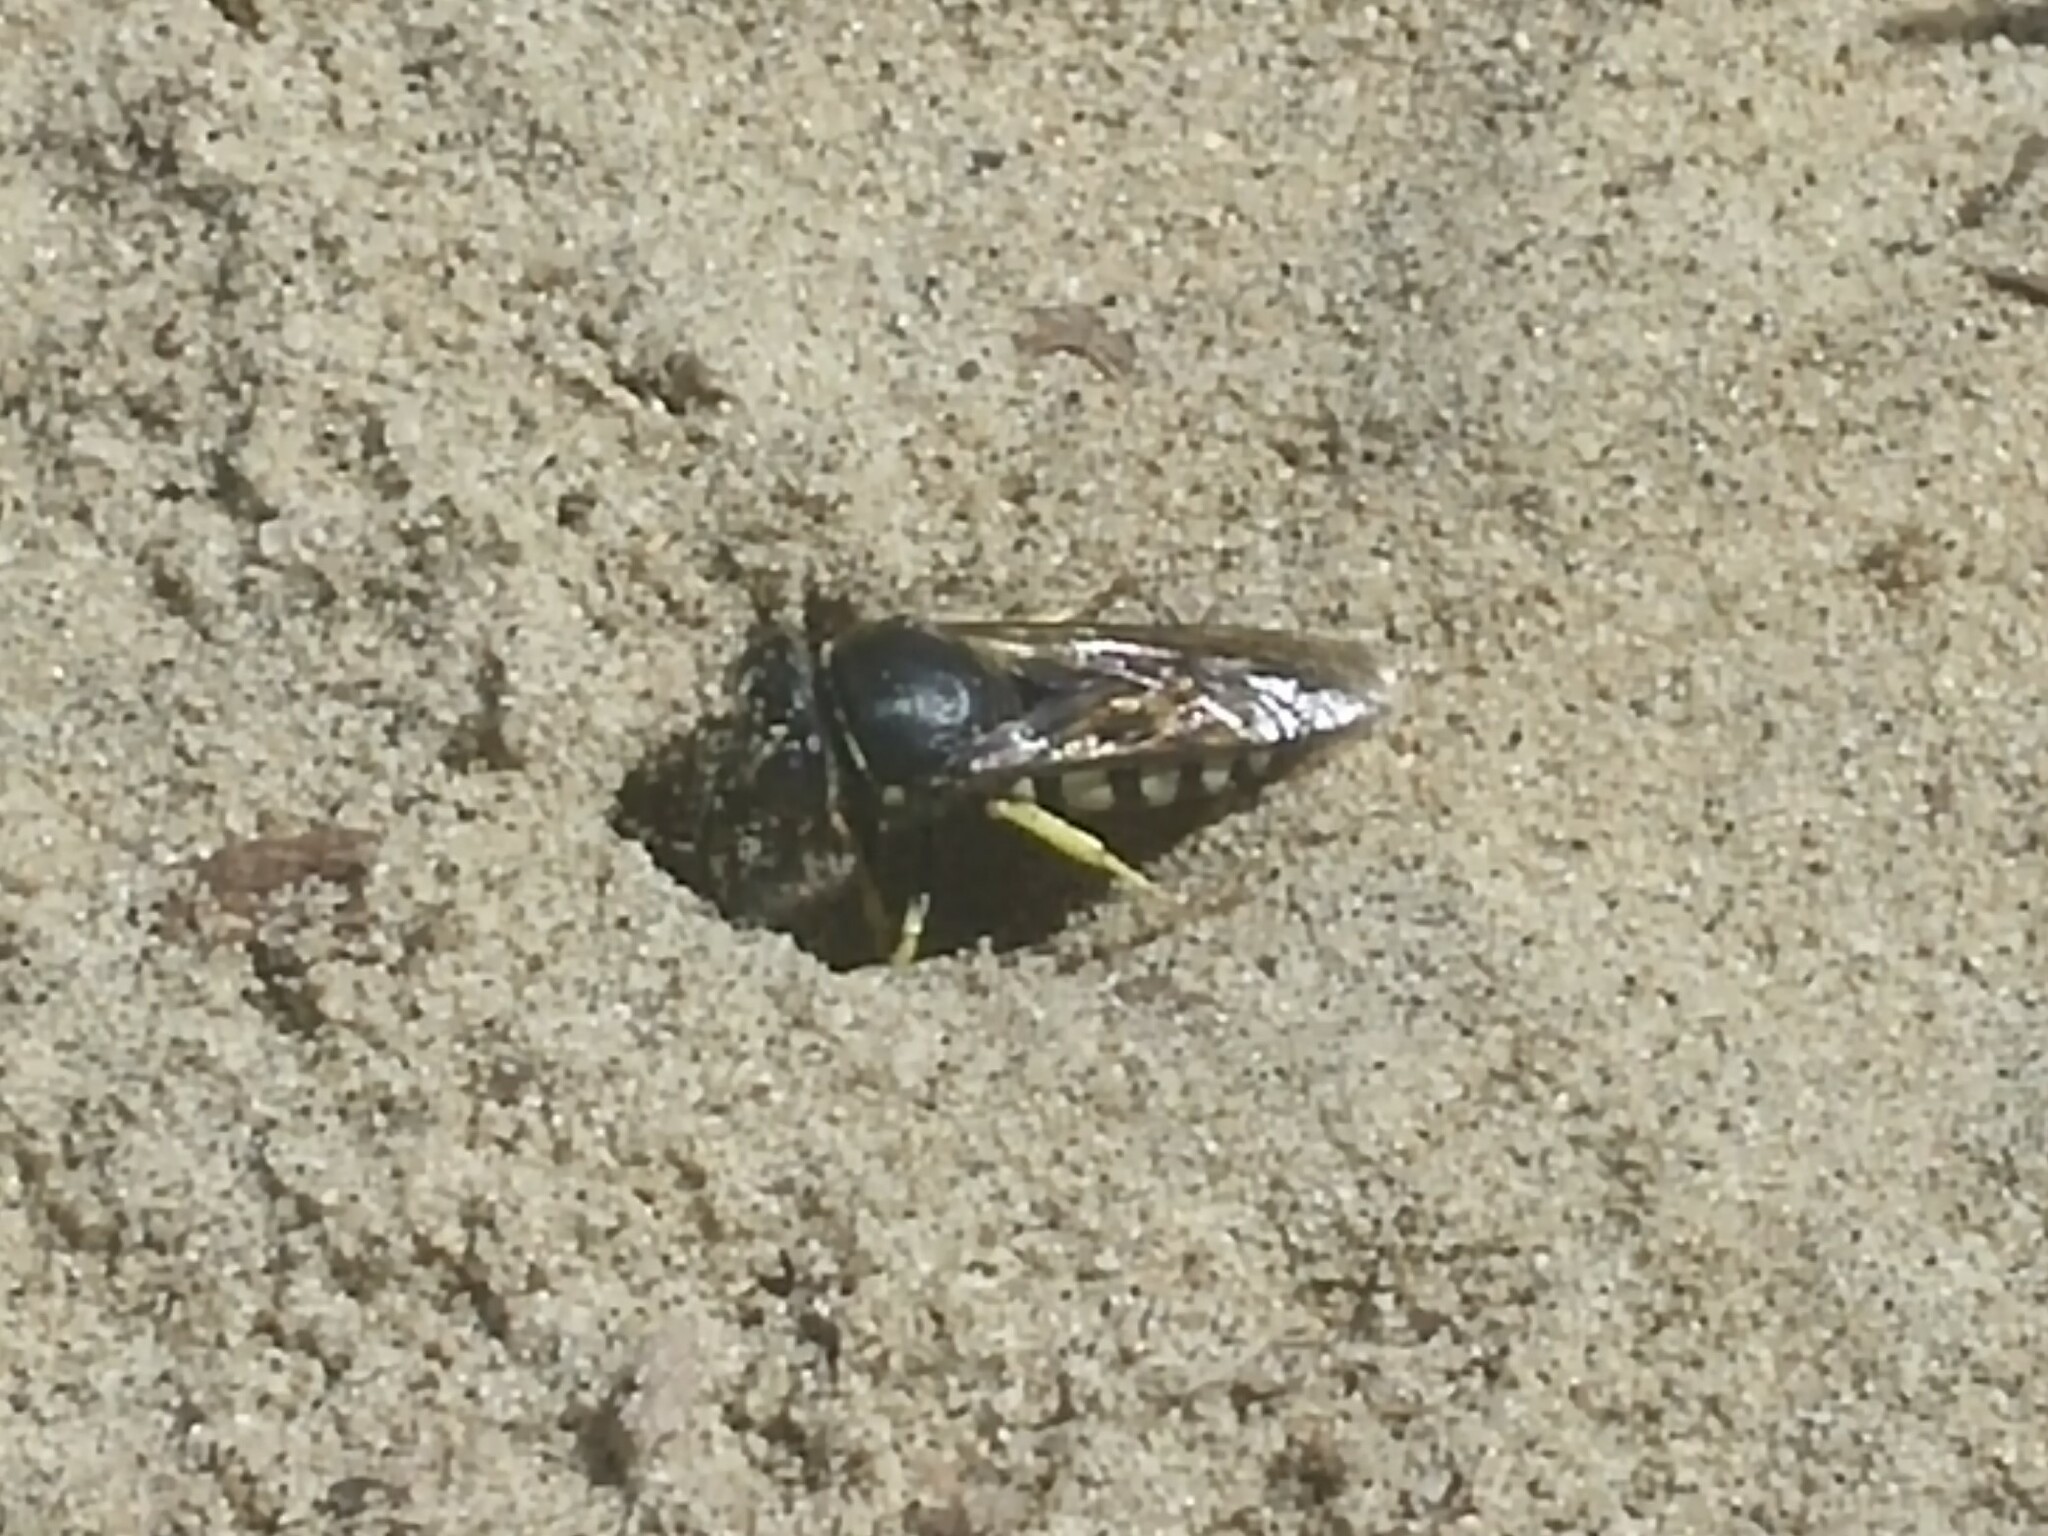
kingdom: Animalia
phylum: Arthropoda
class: Insecta
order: Hymenoptera
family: Crabronidae
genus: Bicyrtes
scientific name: Bicyrtes quadrifasciatus
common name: Four-banded stink bug hunter wasp
